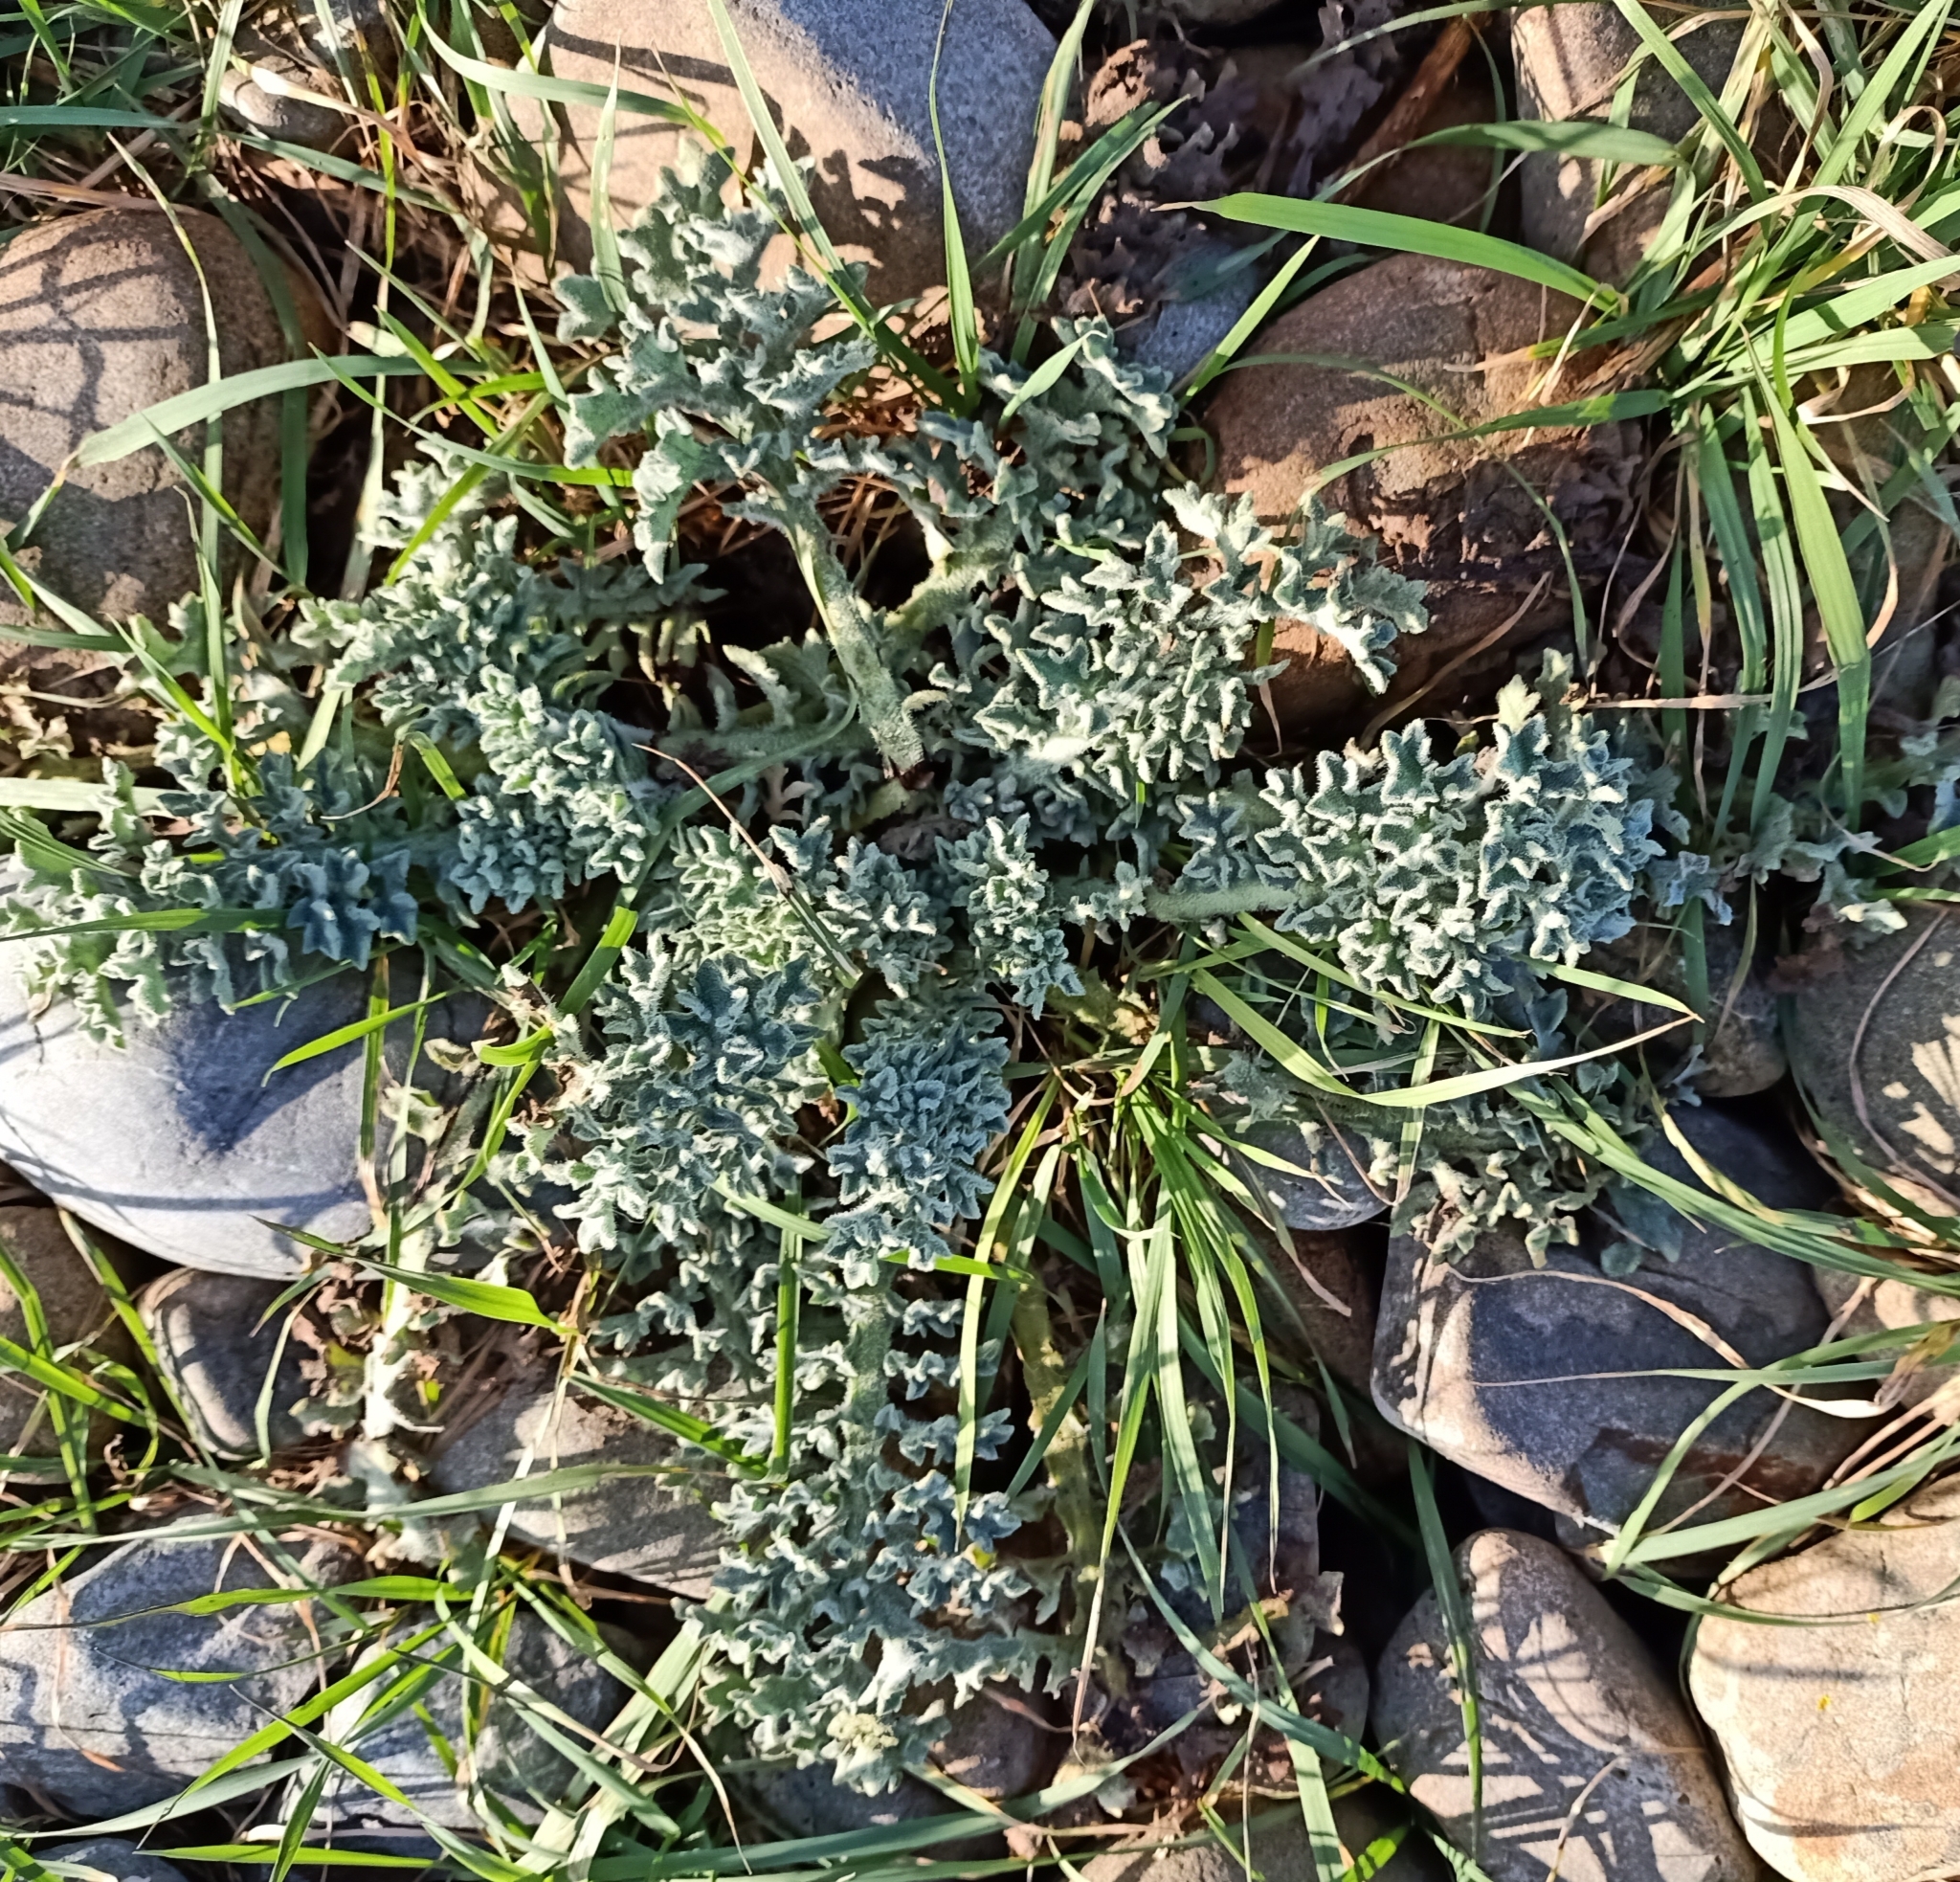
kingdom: Plantae
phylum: Tracheophyta
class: Magnoliopsida
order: Ranunculales
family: Papaveraceae
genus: Glaucium
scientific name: Glaucium flavum
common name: Yellow horned-poppy
